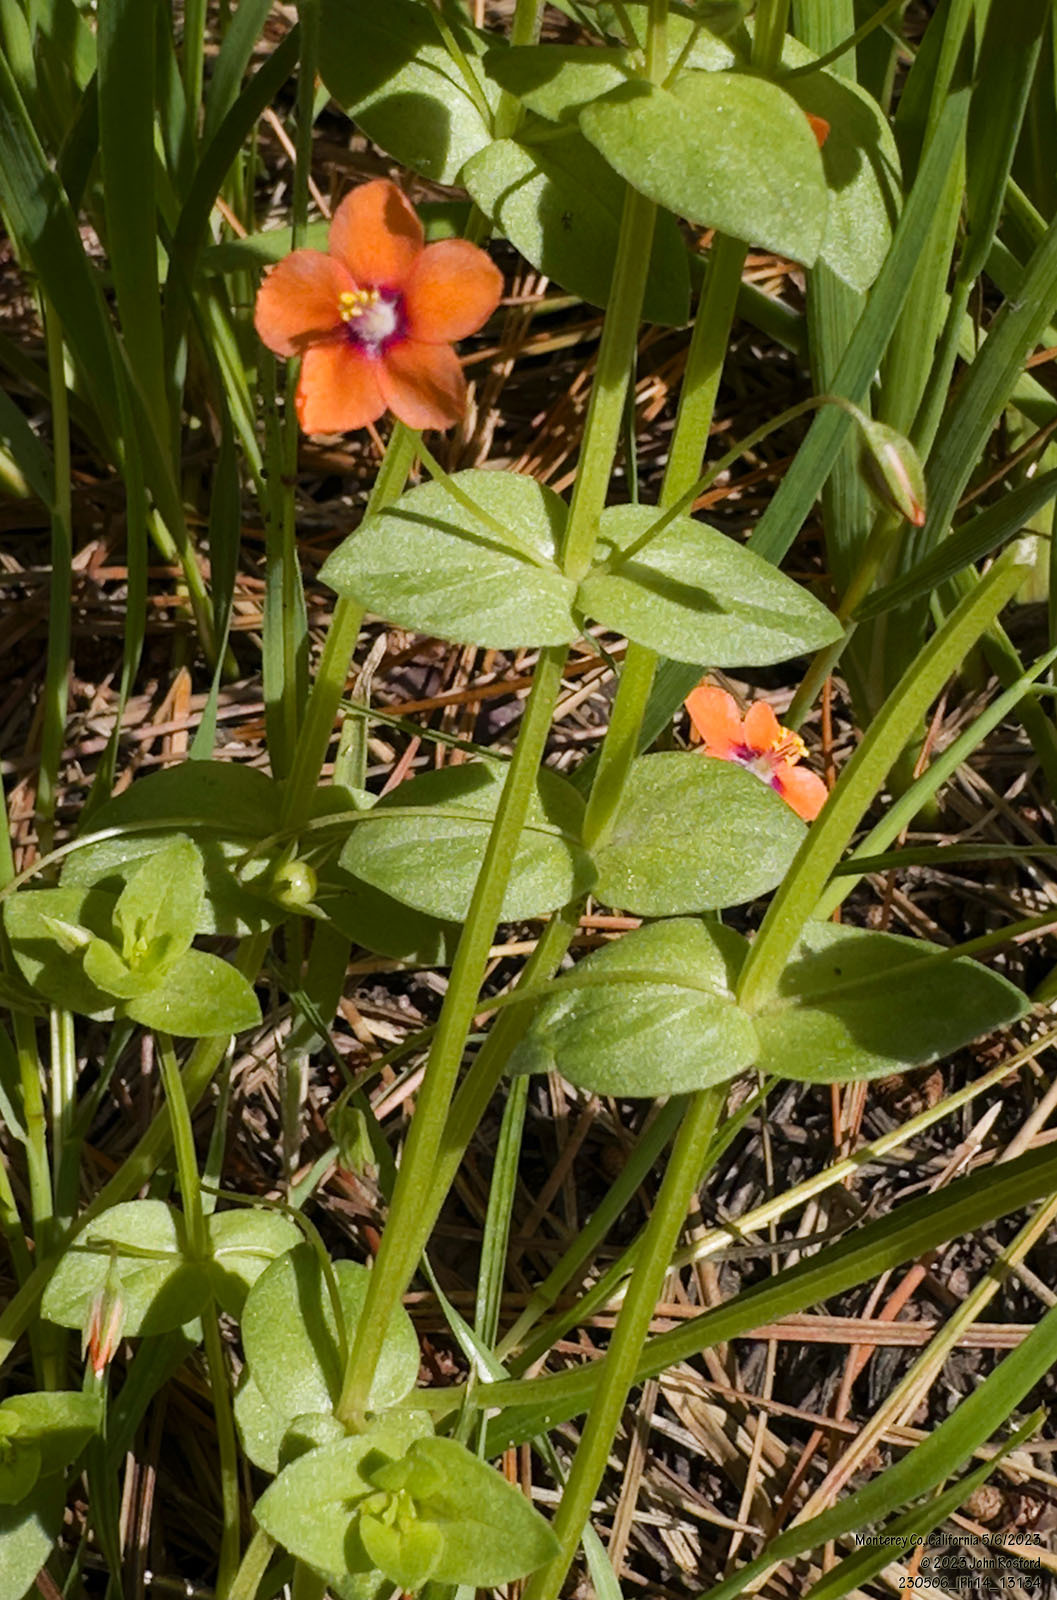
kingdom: Plantae
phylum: Tracheophyta
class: Magnoliopsida
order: Ericales
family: Primulaceae
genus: Lysimachia
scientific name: Lysimachia arvensis
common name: Scarlet pimpernel
